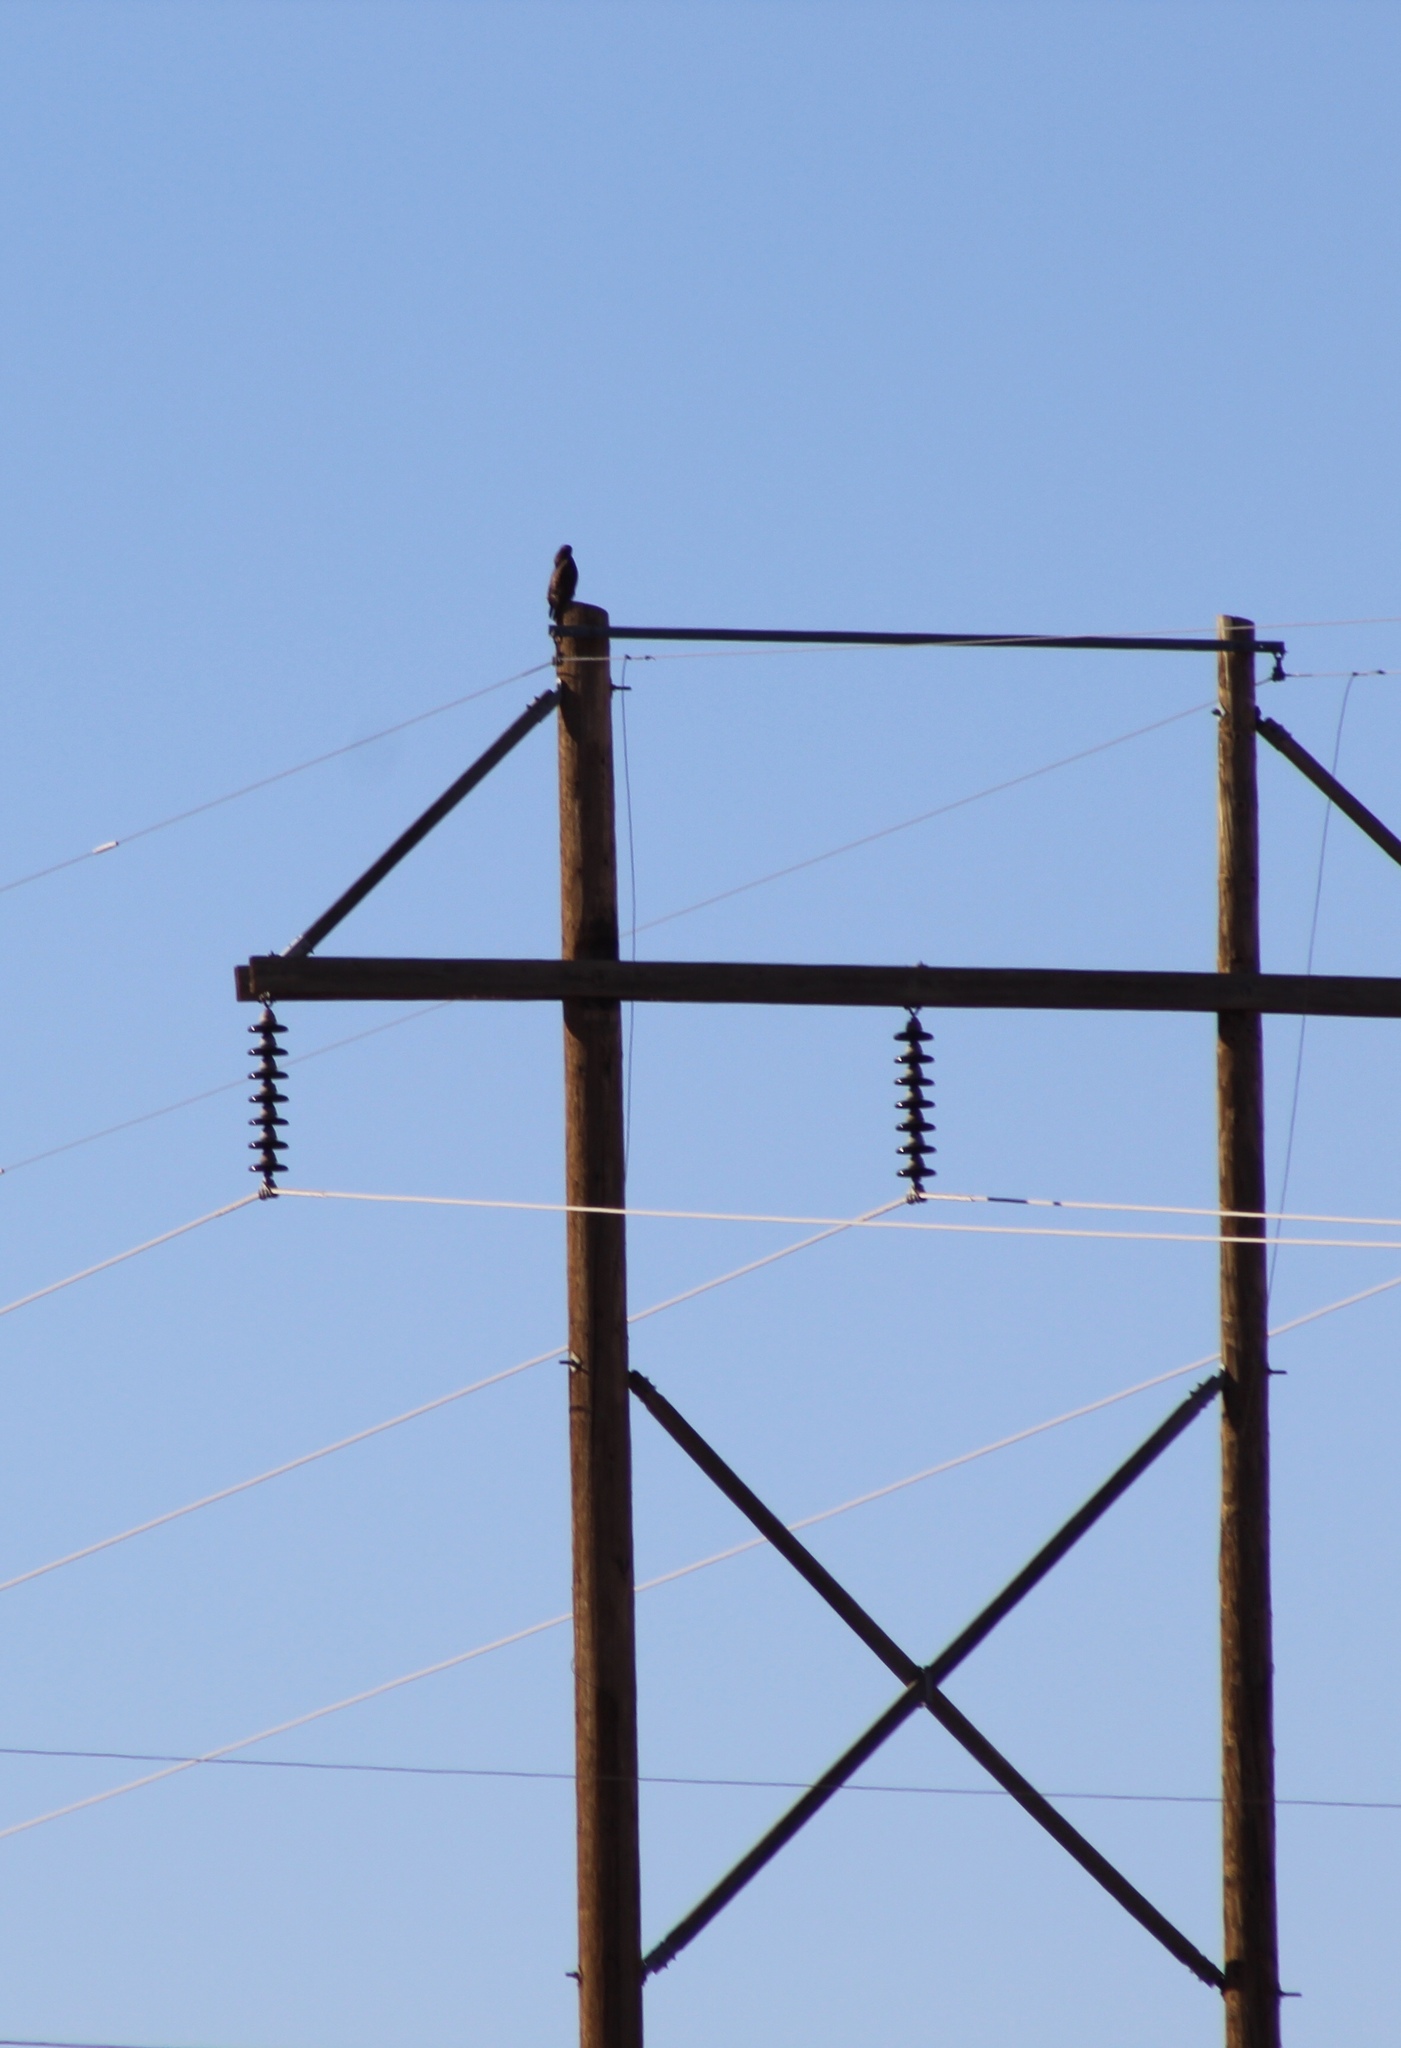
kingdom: Animalia
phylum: Chordata
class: Aves
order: Accipitriformes
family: Accipitridae
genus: Buteo
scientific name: Buteo jamaicensis
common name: Red-tailed hawk
